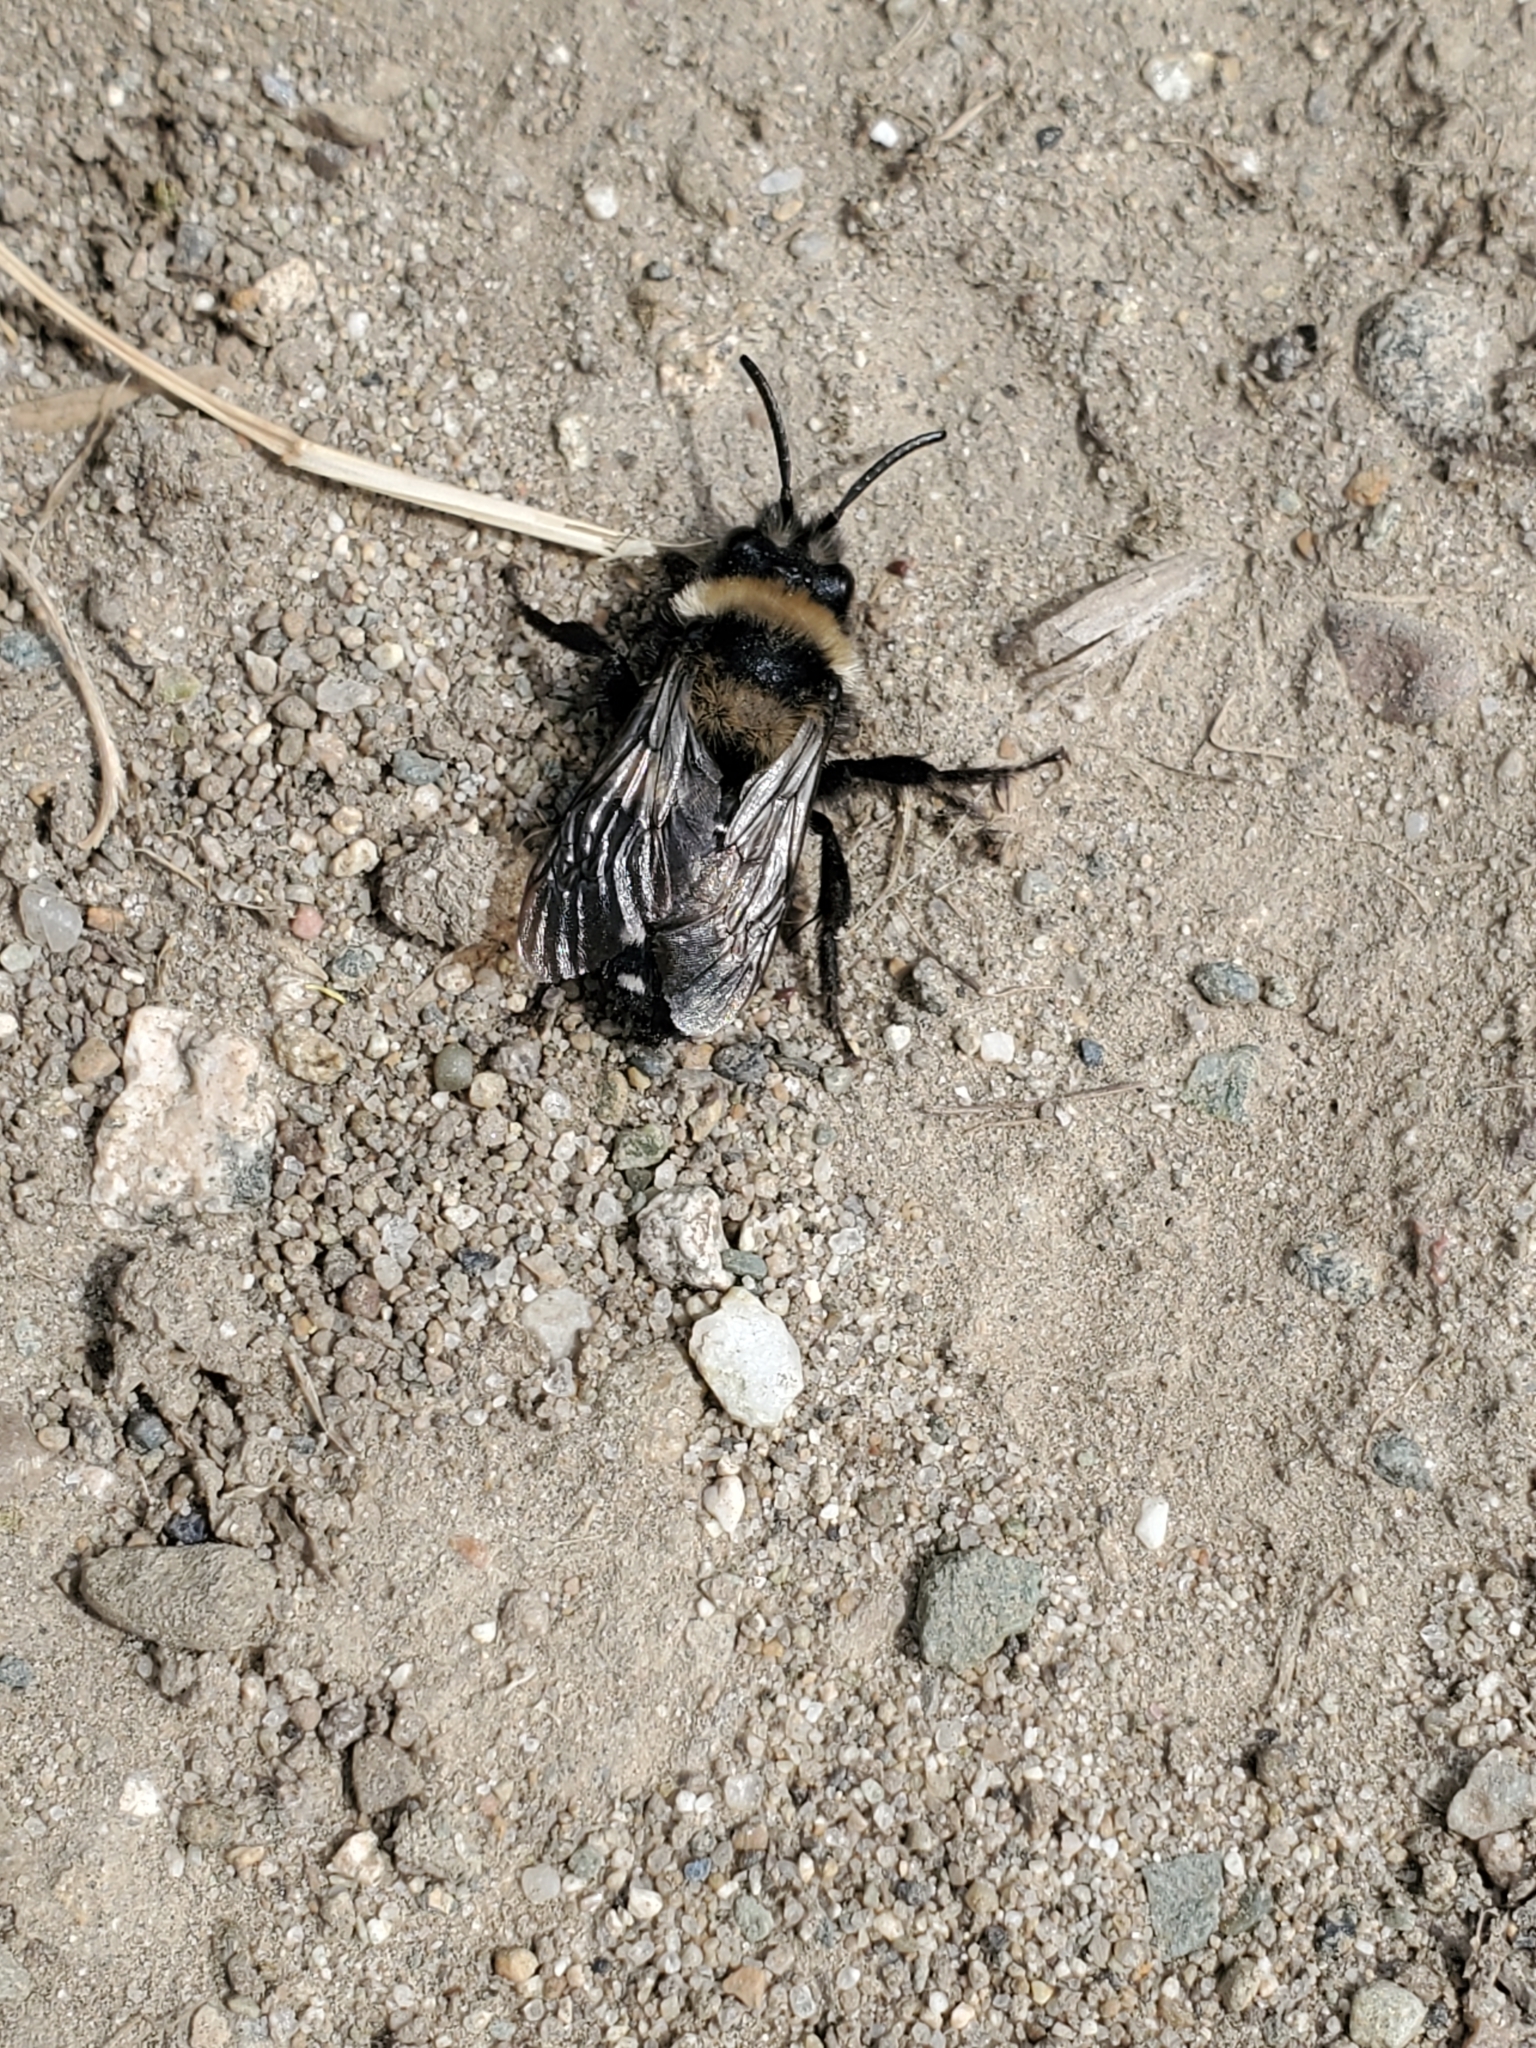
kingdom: Animalia
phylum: Arthropoda
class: Insecta
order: Hymenoptera
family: Apidae
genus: Melecta
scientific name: Melecta separata
